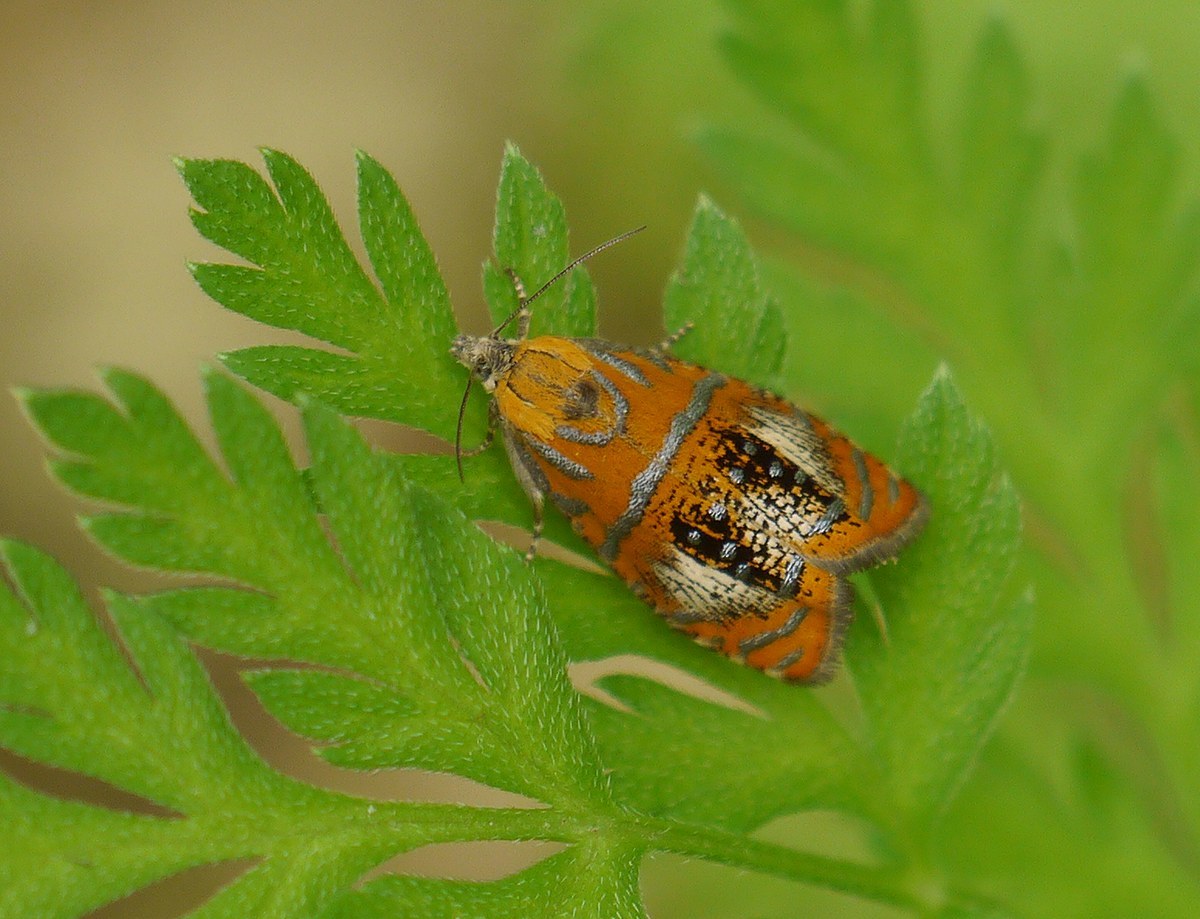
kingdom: Animalia
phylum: Arthropoda
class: Insecta
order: Lepidoptera
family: Tortricidae
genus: Olethreutes
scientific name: Olethreutes arcuella
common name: Arched marble
